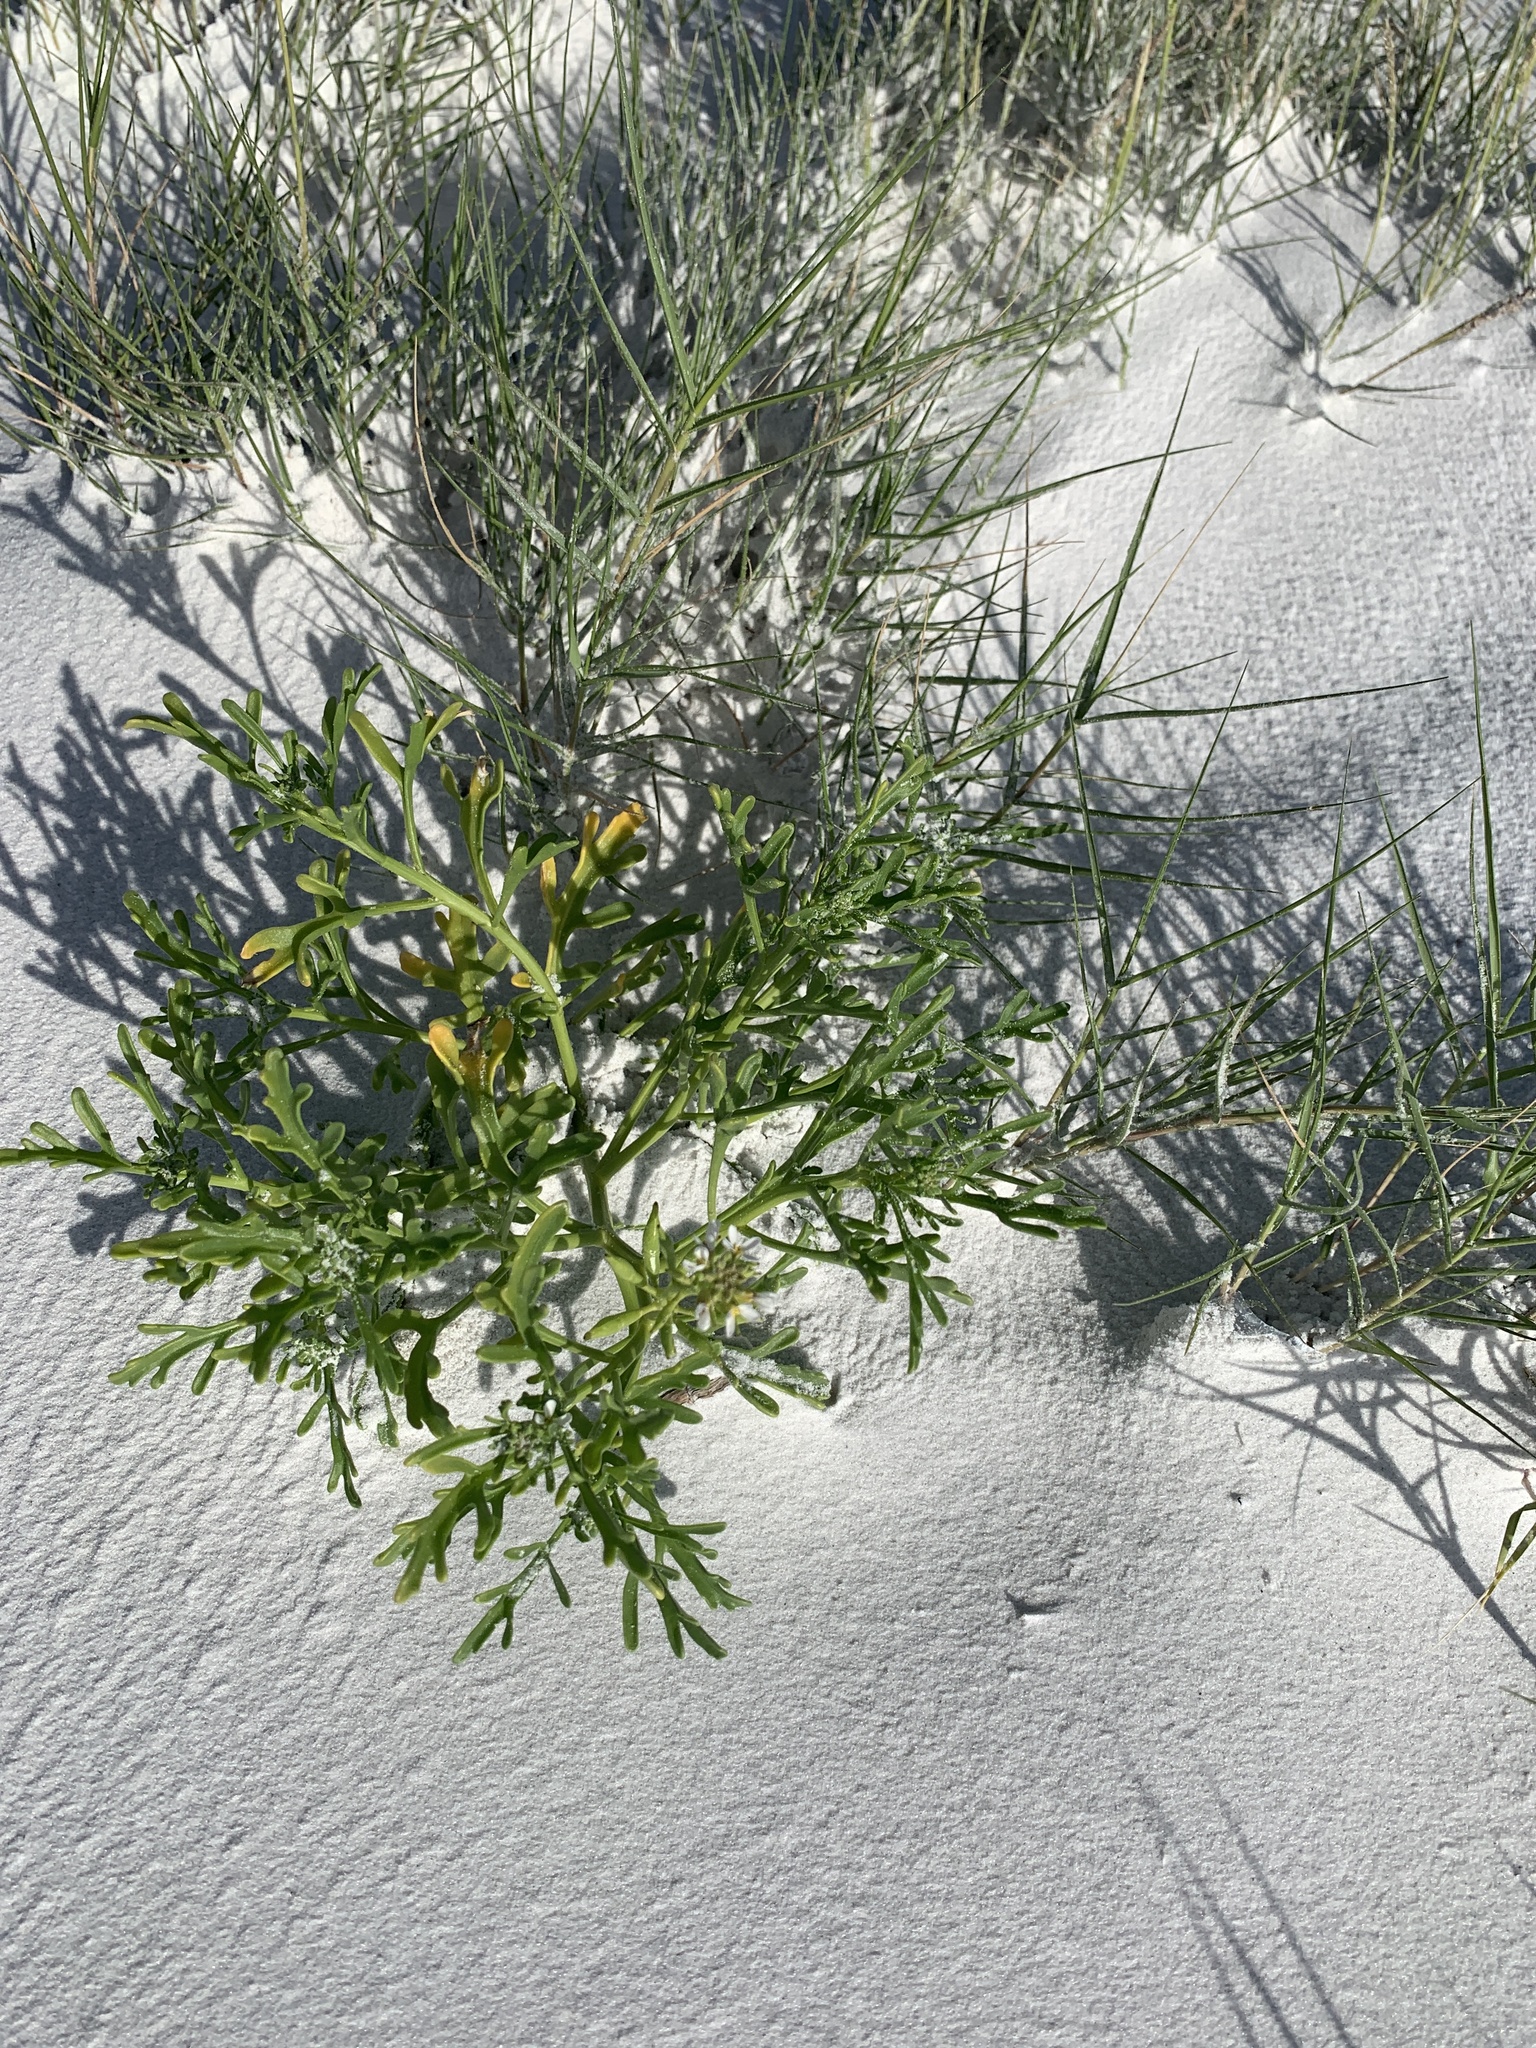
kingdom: Plantae
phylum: Tracheophyta
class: Magnoliopsida
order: Brassicales
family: Brassicaceae
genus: Cakile
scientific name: Cakile lanceolata
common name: Sea rocket
